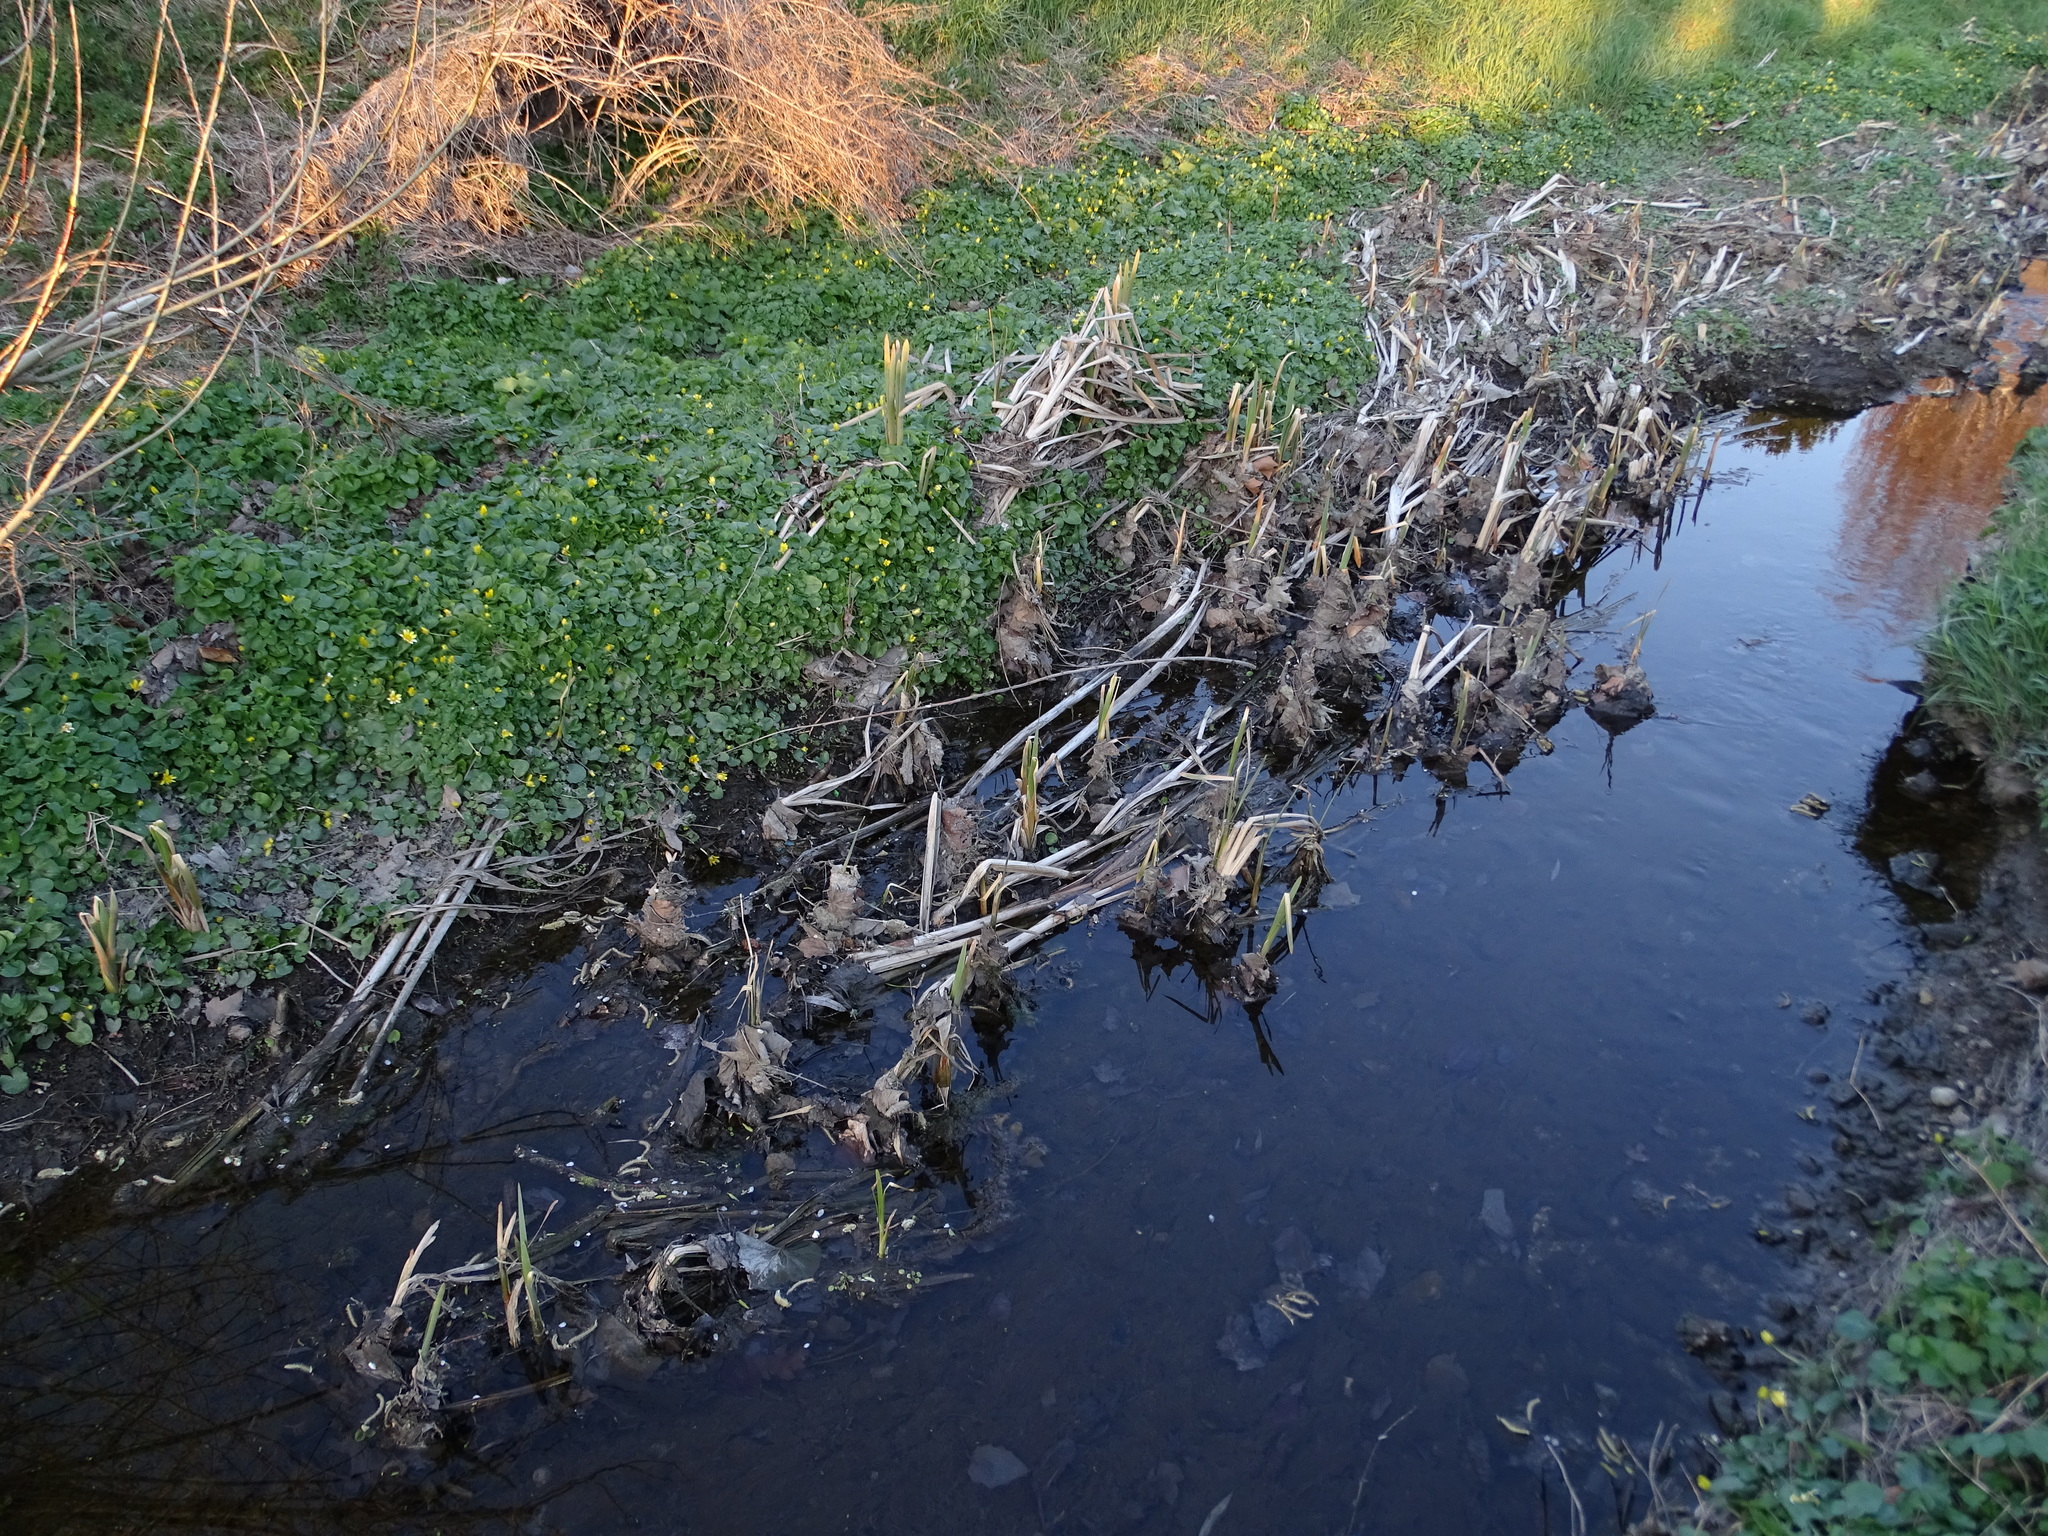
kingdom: Plantae
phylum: Tracheophyta
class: Liliopsida
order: Poales
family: Typhaceae
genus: Typha
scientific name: Typha latifolia
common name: Broadleaf cattail
